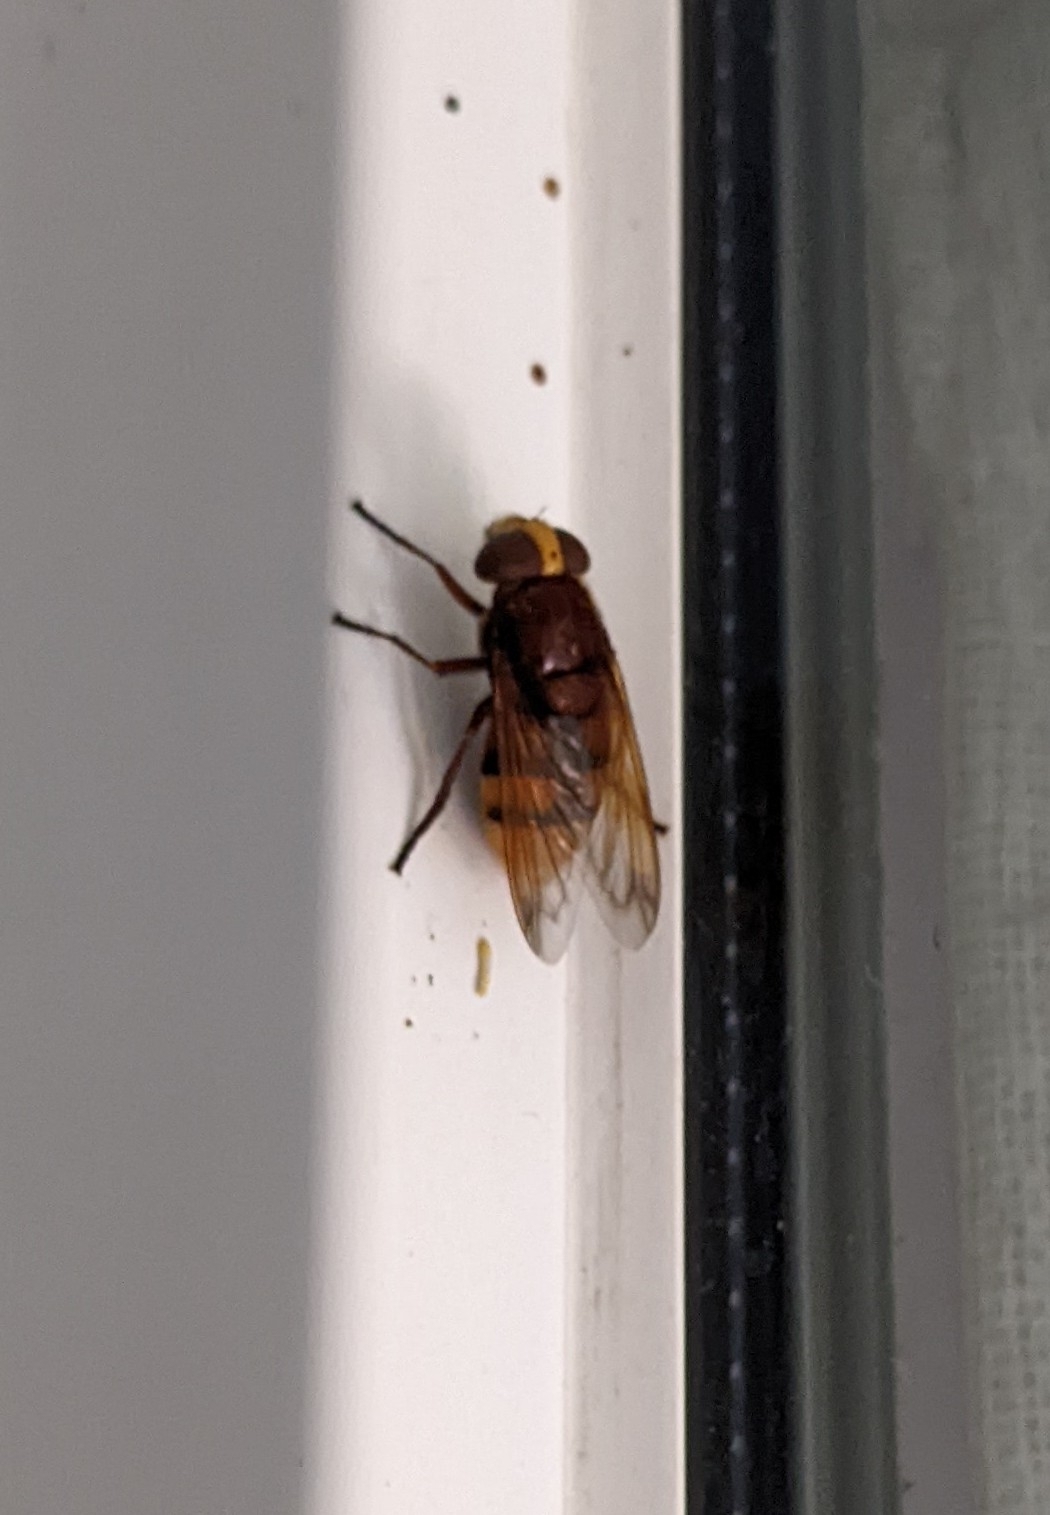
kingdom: Animalia
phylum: Arthropoda
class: Insecta
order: Diptera
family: Syrphidae
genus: Volucella
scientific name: Volucella zonaria
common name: Hornet hoverfly
